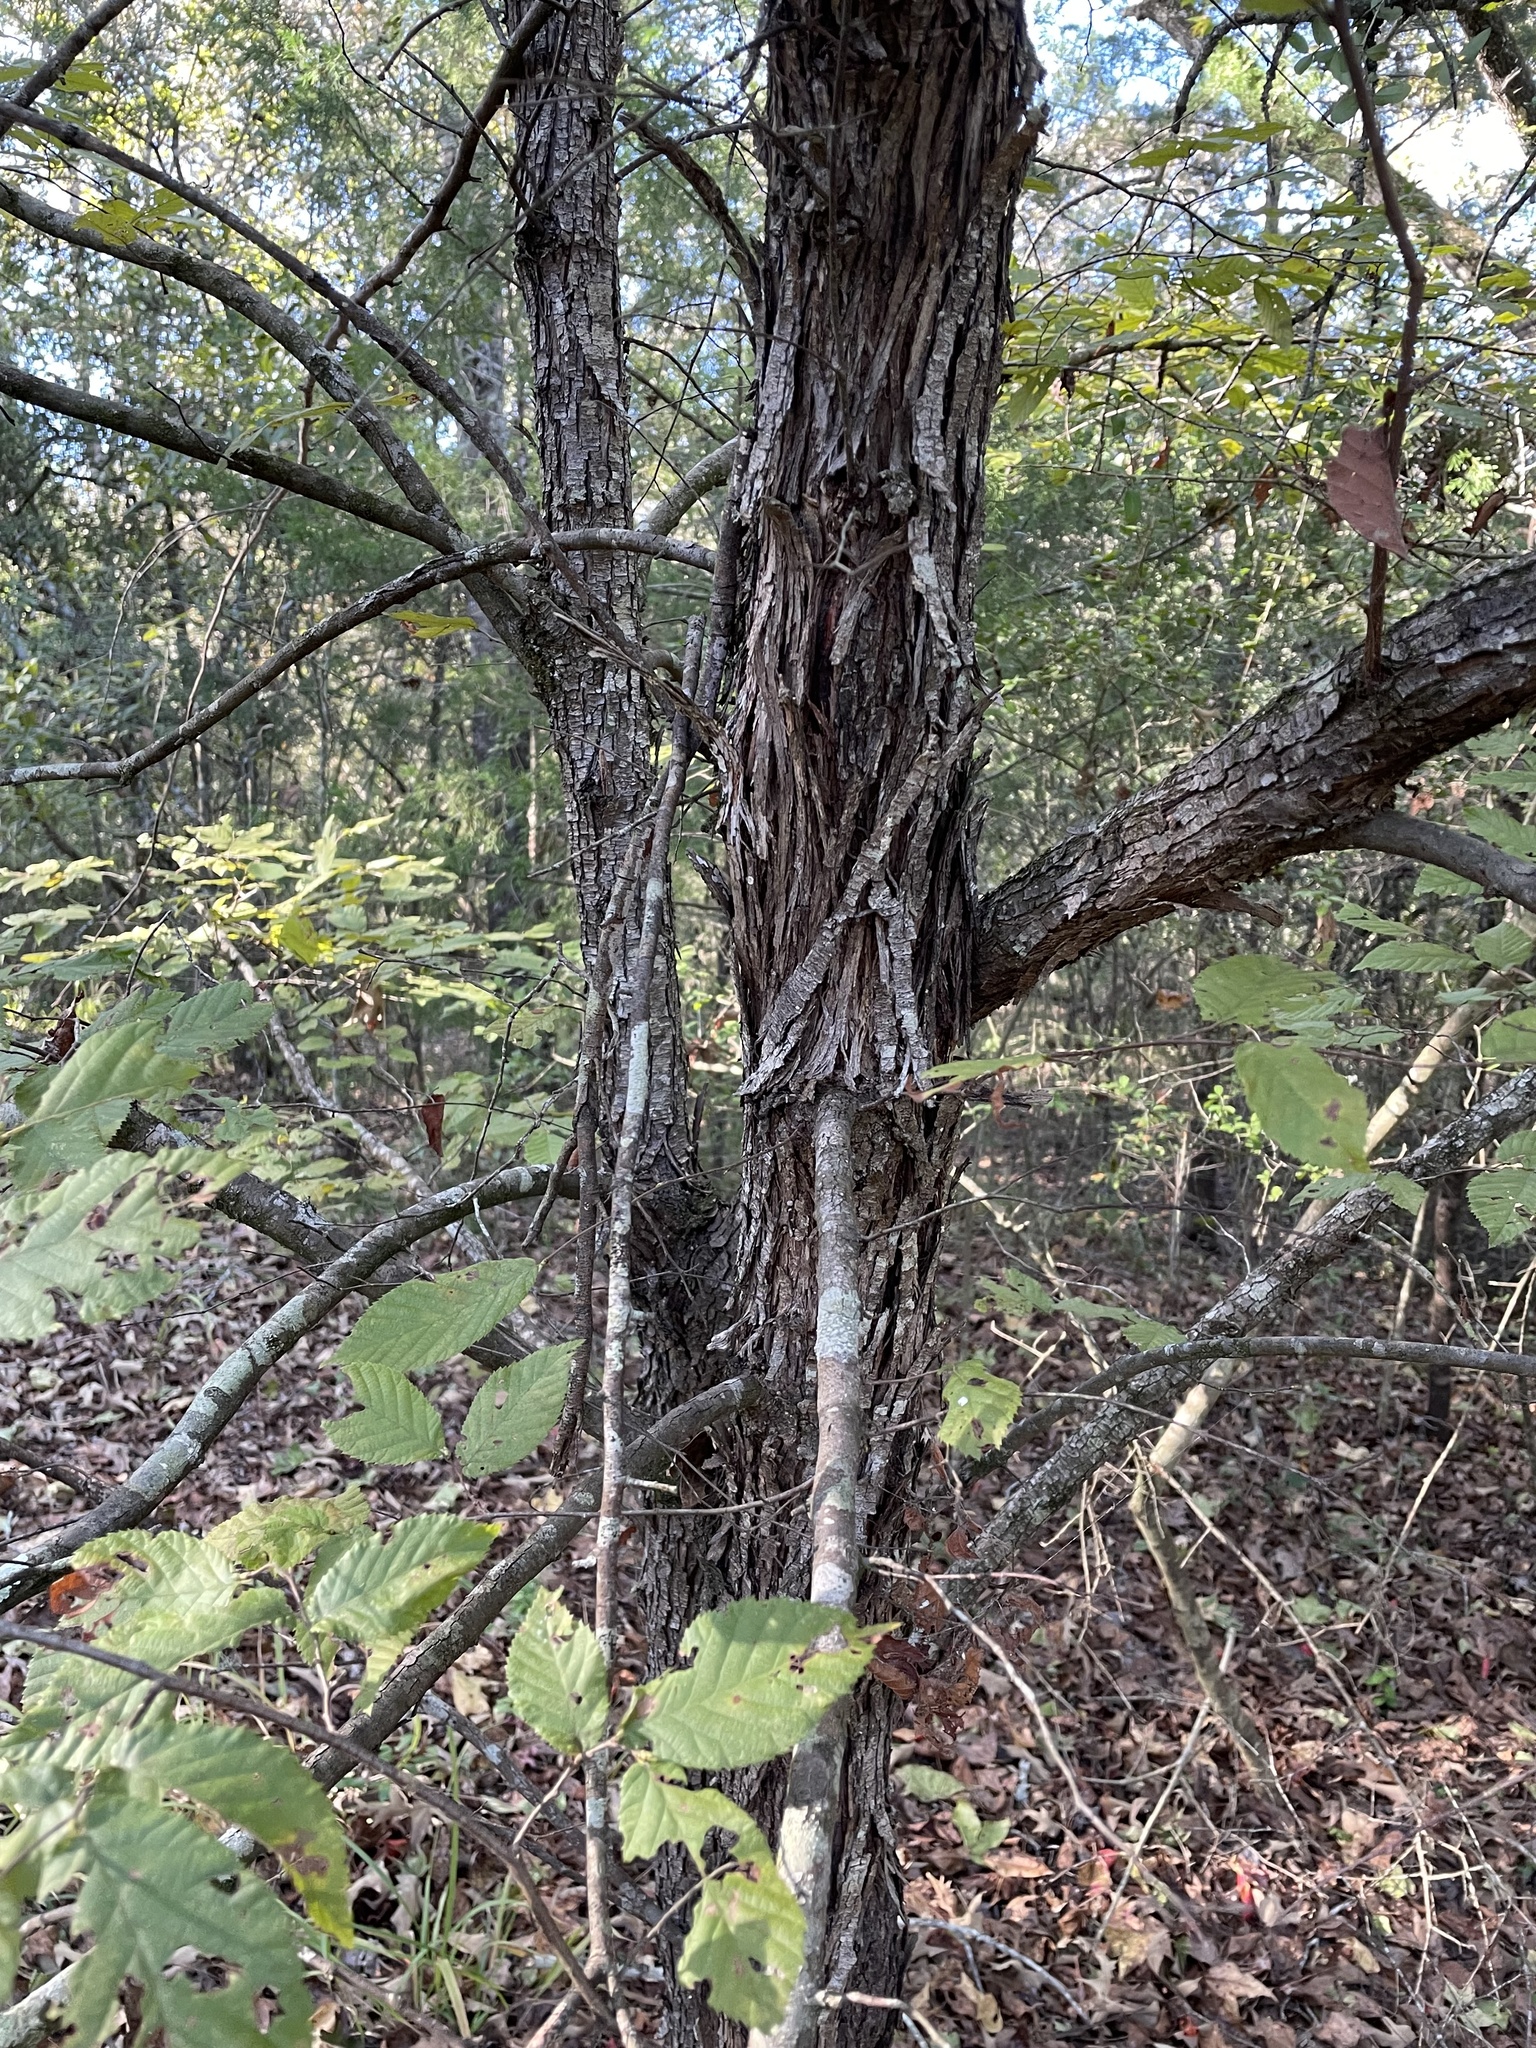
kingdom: Plantae
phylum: Tracheophyta
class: Magnoliopsida
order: Fagales
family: Betulaceae
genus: Ostrya
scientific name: Ostrya virginiana
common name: Ironwood
